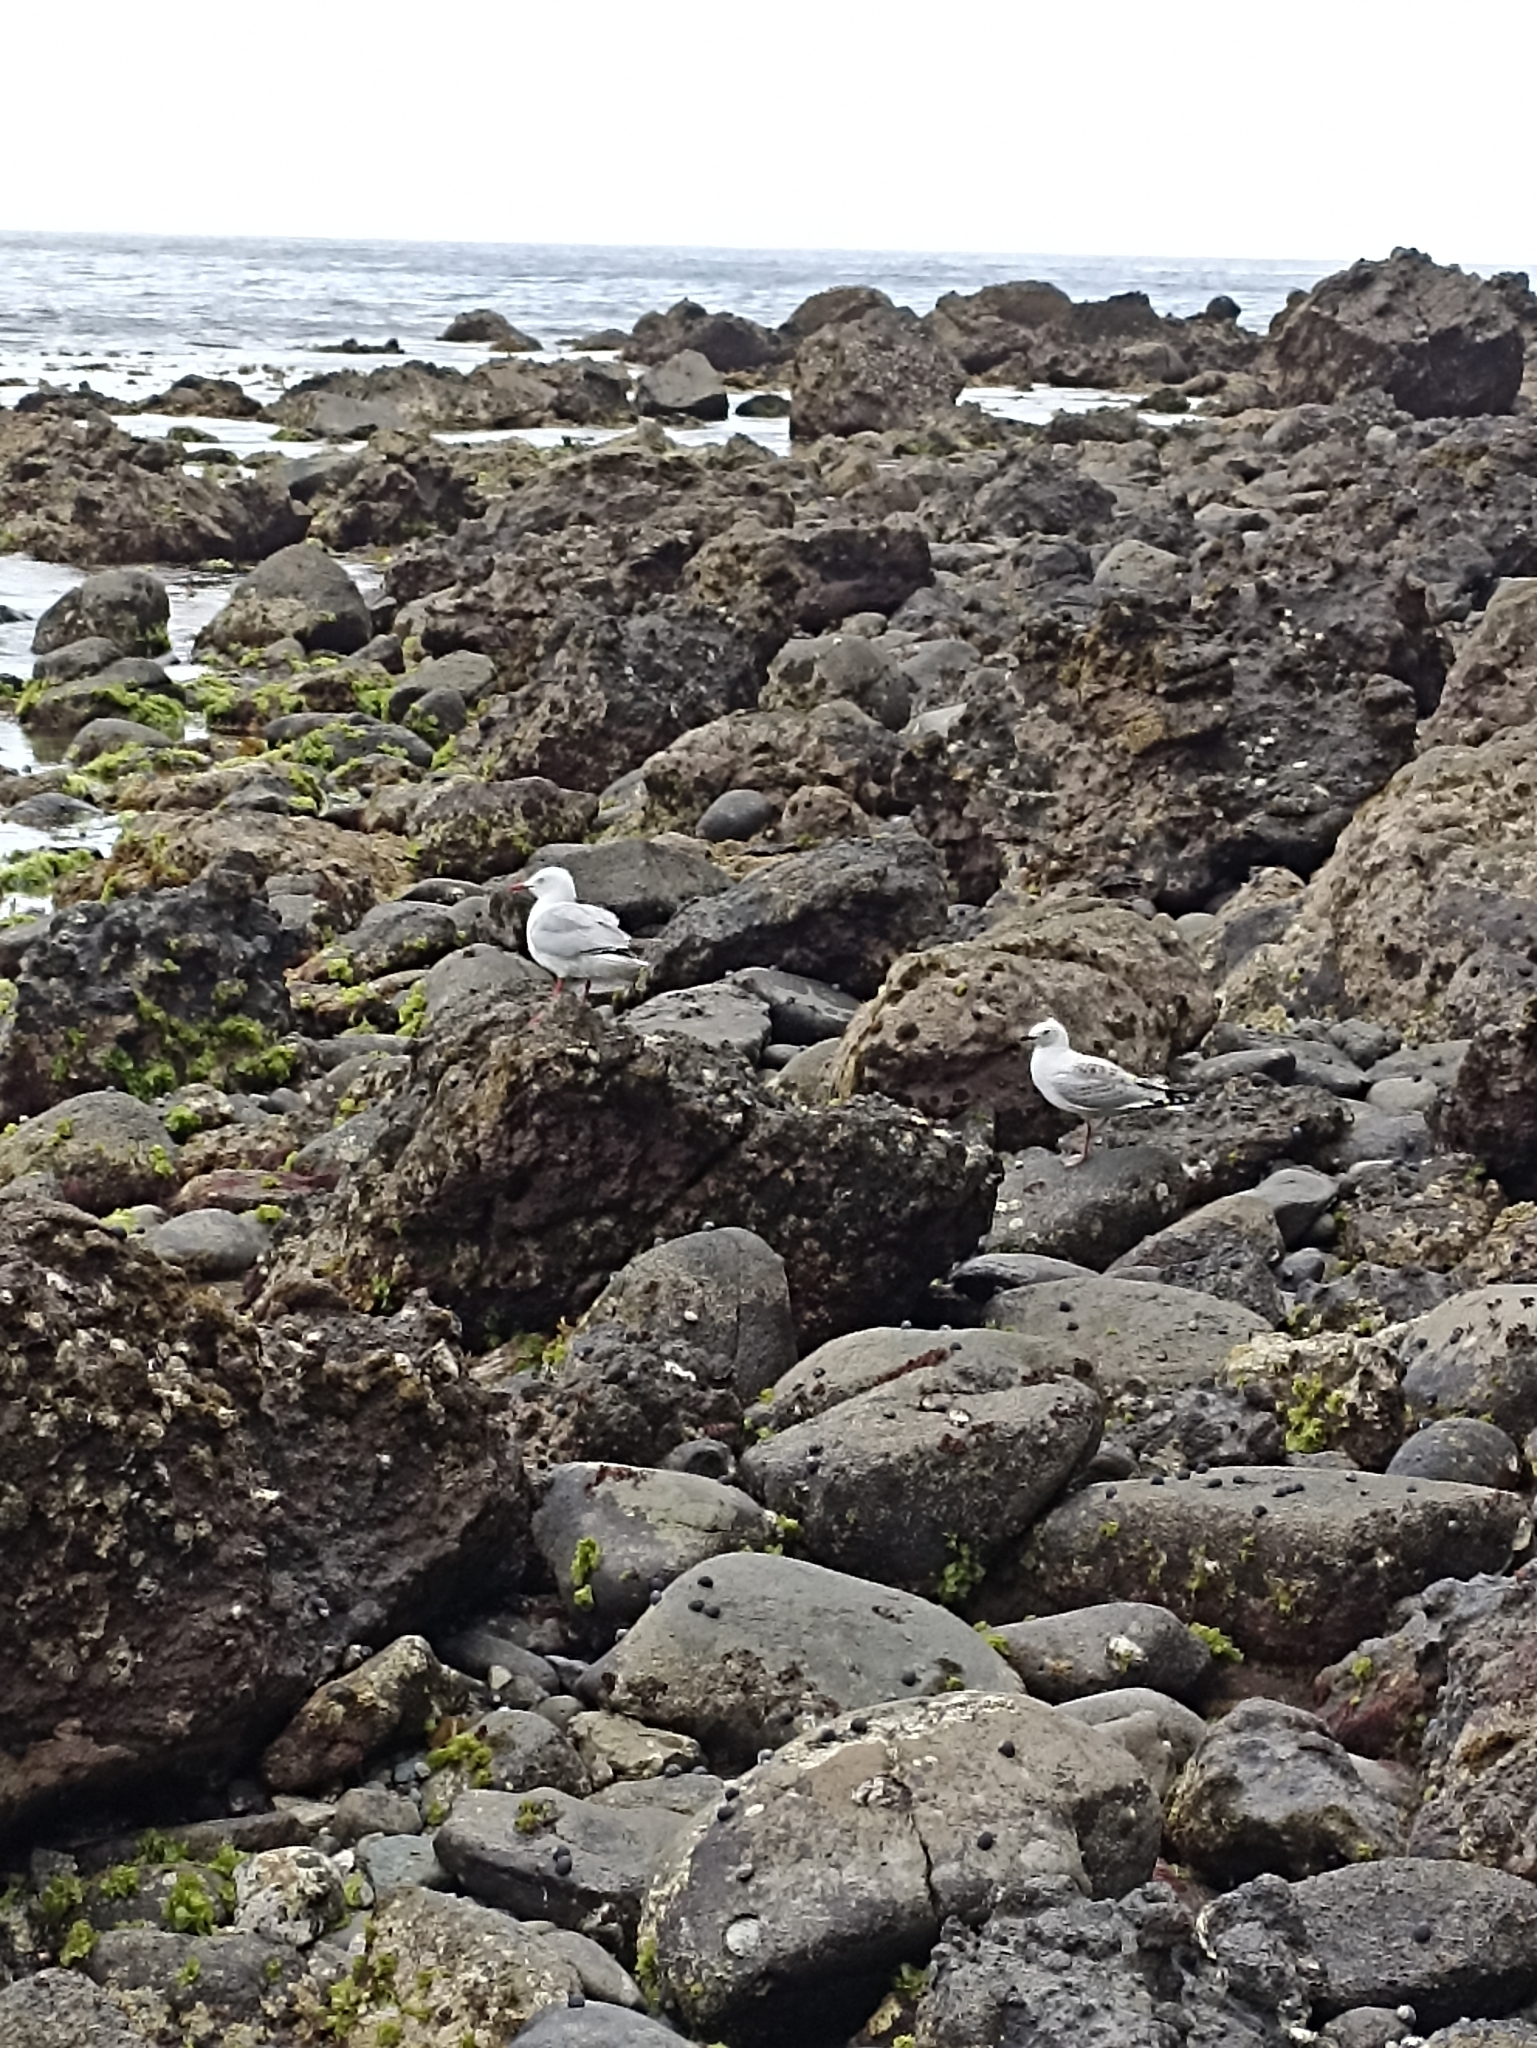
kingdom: Animalia
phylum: Chordata
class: Aves
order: Charadriiformes
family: Laridae
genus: Chroicocephalus
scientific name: Chroicocephalus novaehollandiae
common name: Silver gull
